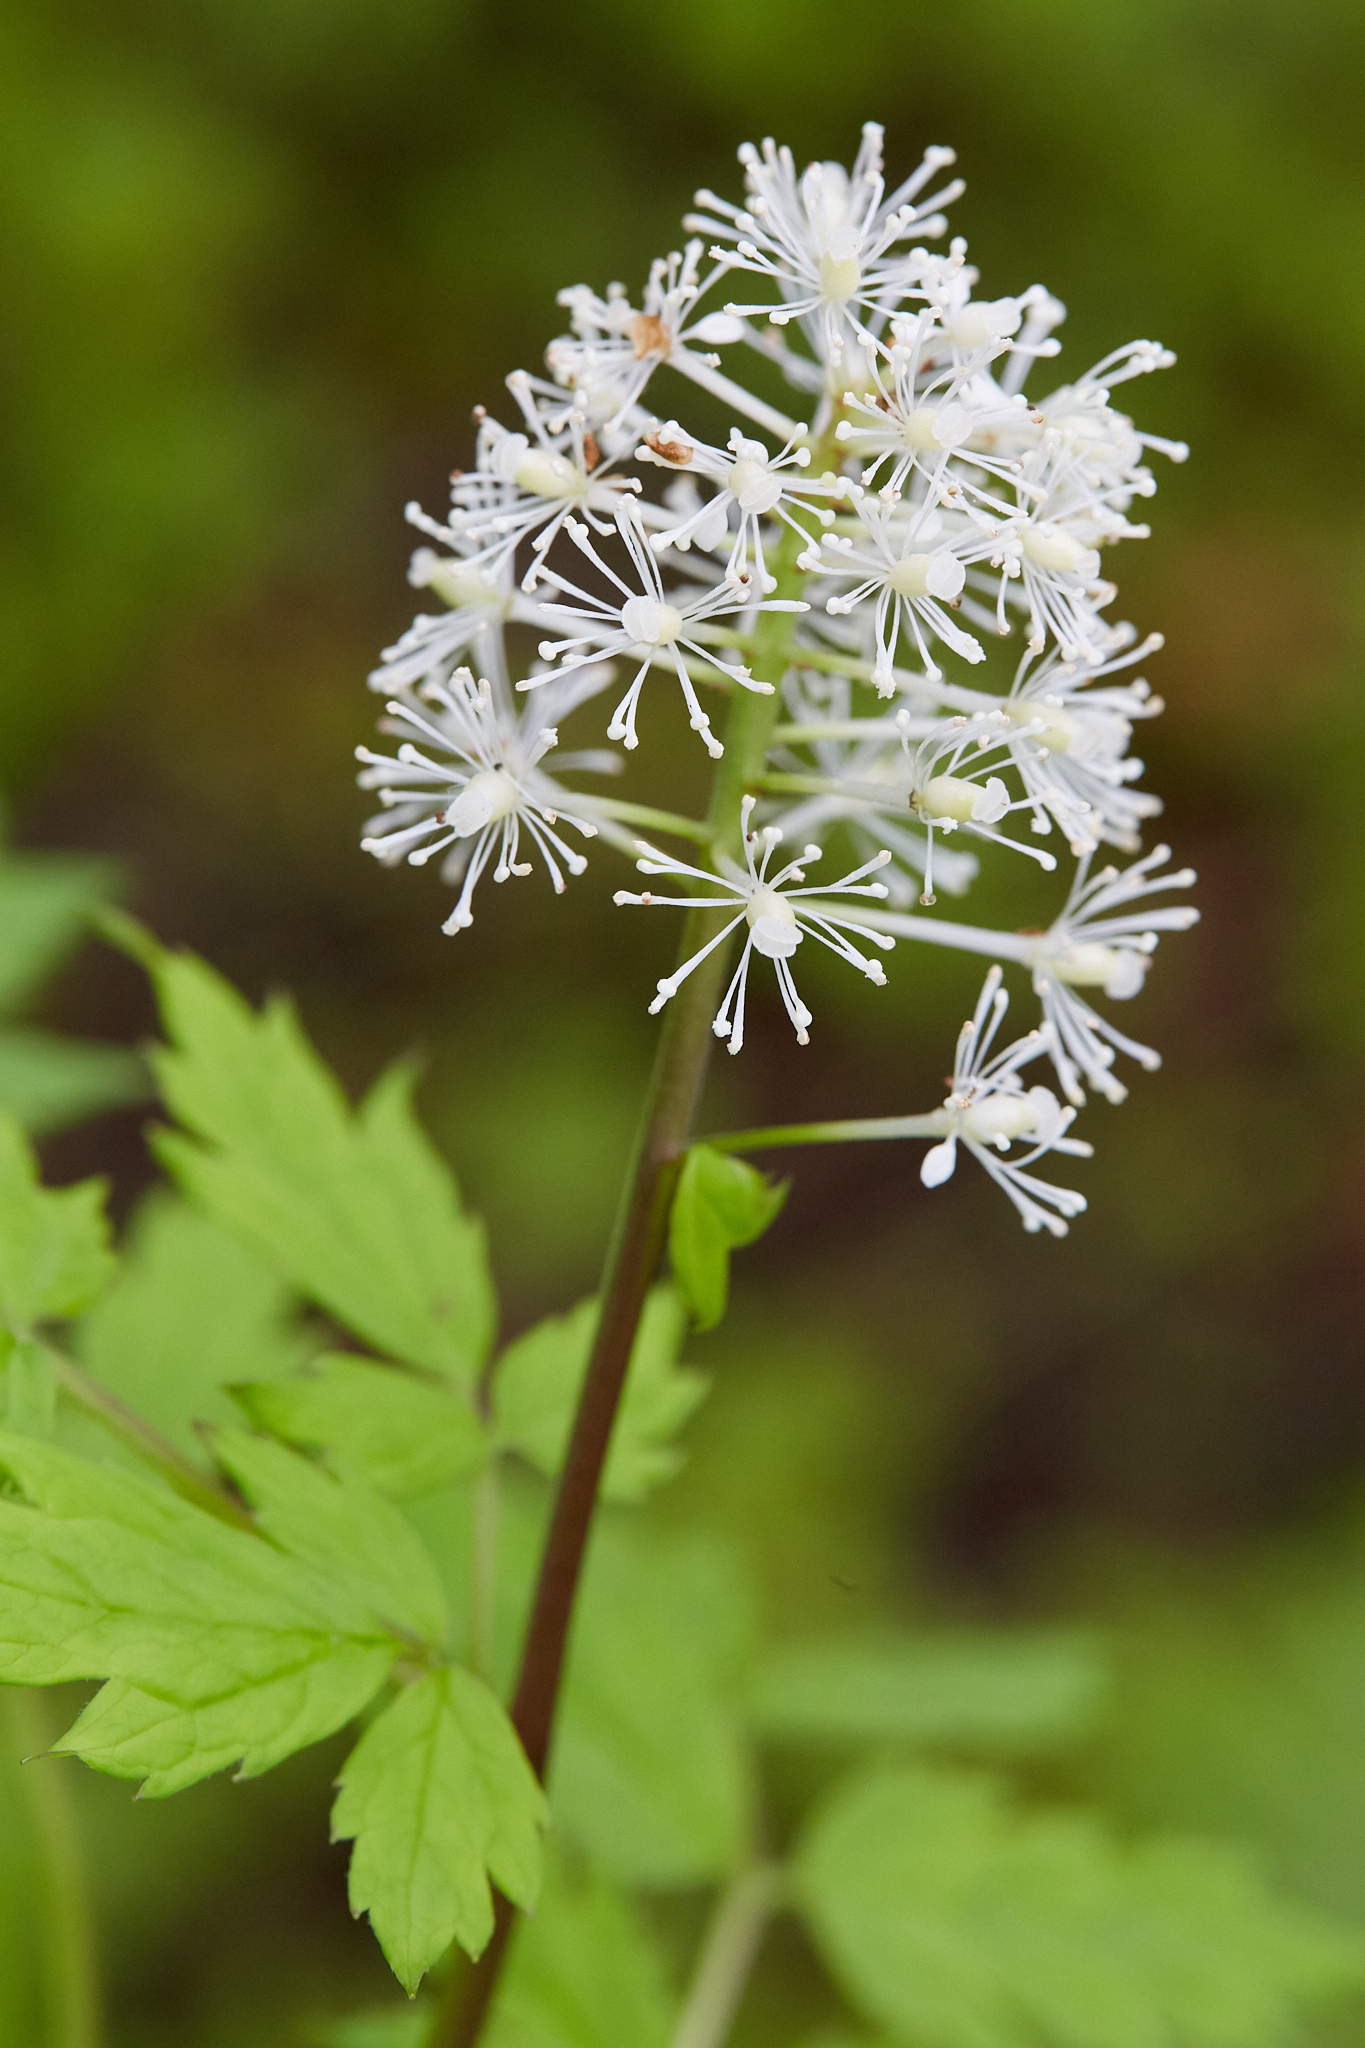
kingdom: Plantae
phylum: Tracheophyta
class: Magnoliopsida
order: Ranunculales
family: Ranunculaceae
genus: Actaea
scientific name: Actaea rubra
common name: Red baneberry
